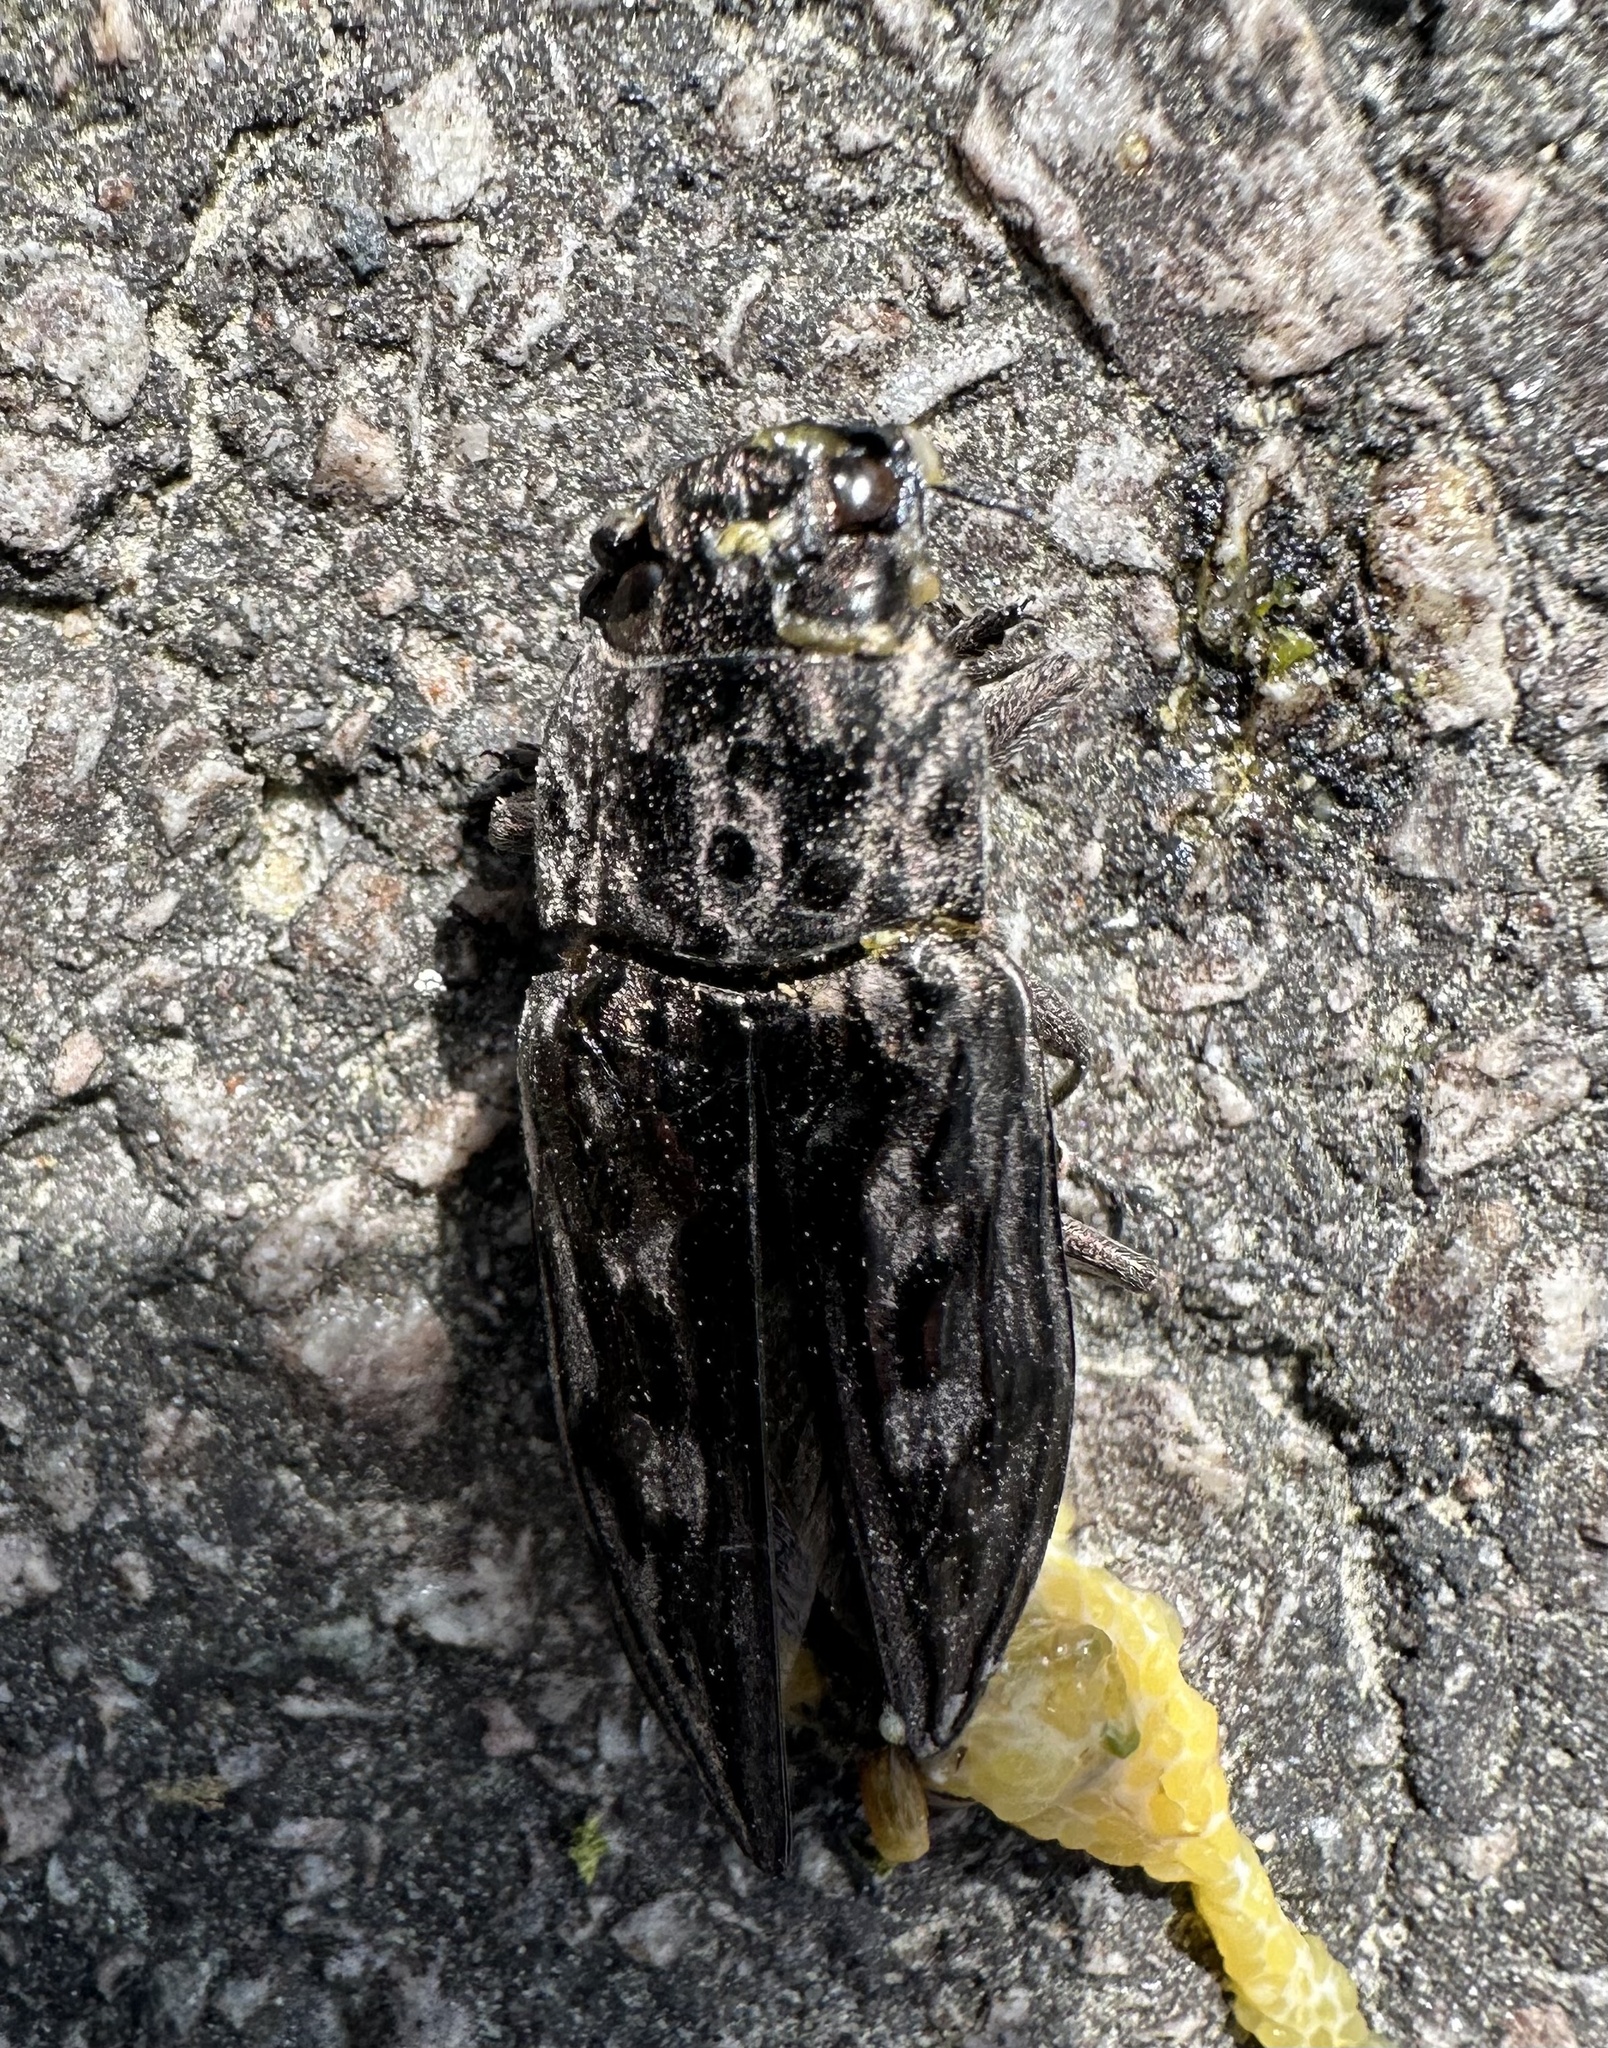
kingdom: Animalia
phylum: Arthropoda
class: Insecta
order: Coleoptera
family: Buprestidae
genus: Chalcophora
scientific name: Chalcophora virginiensis
